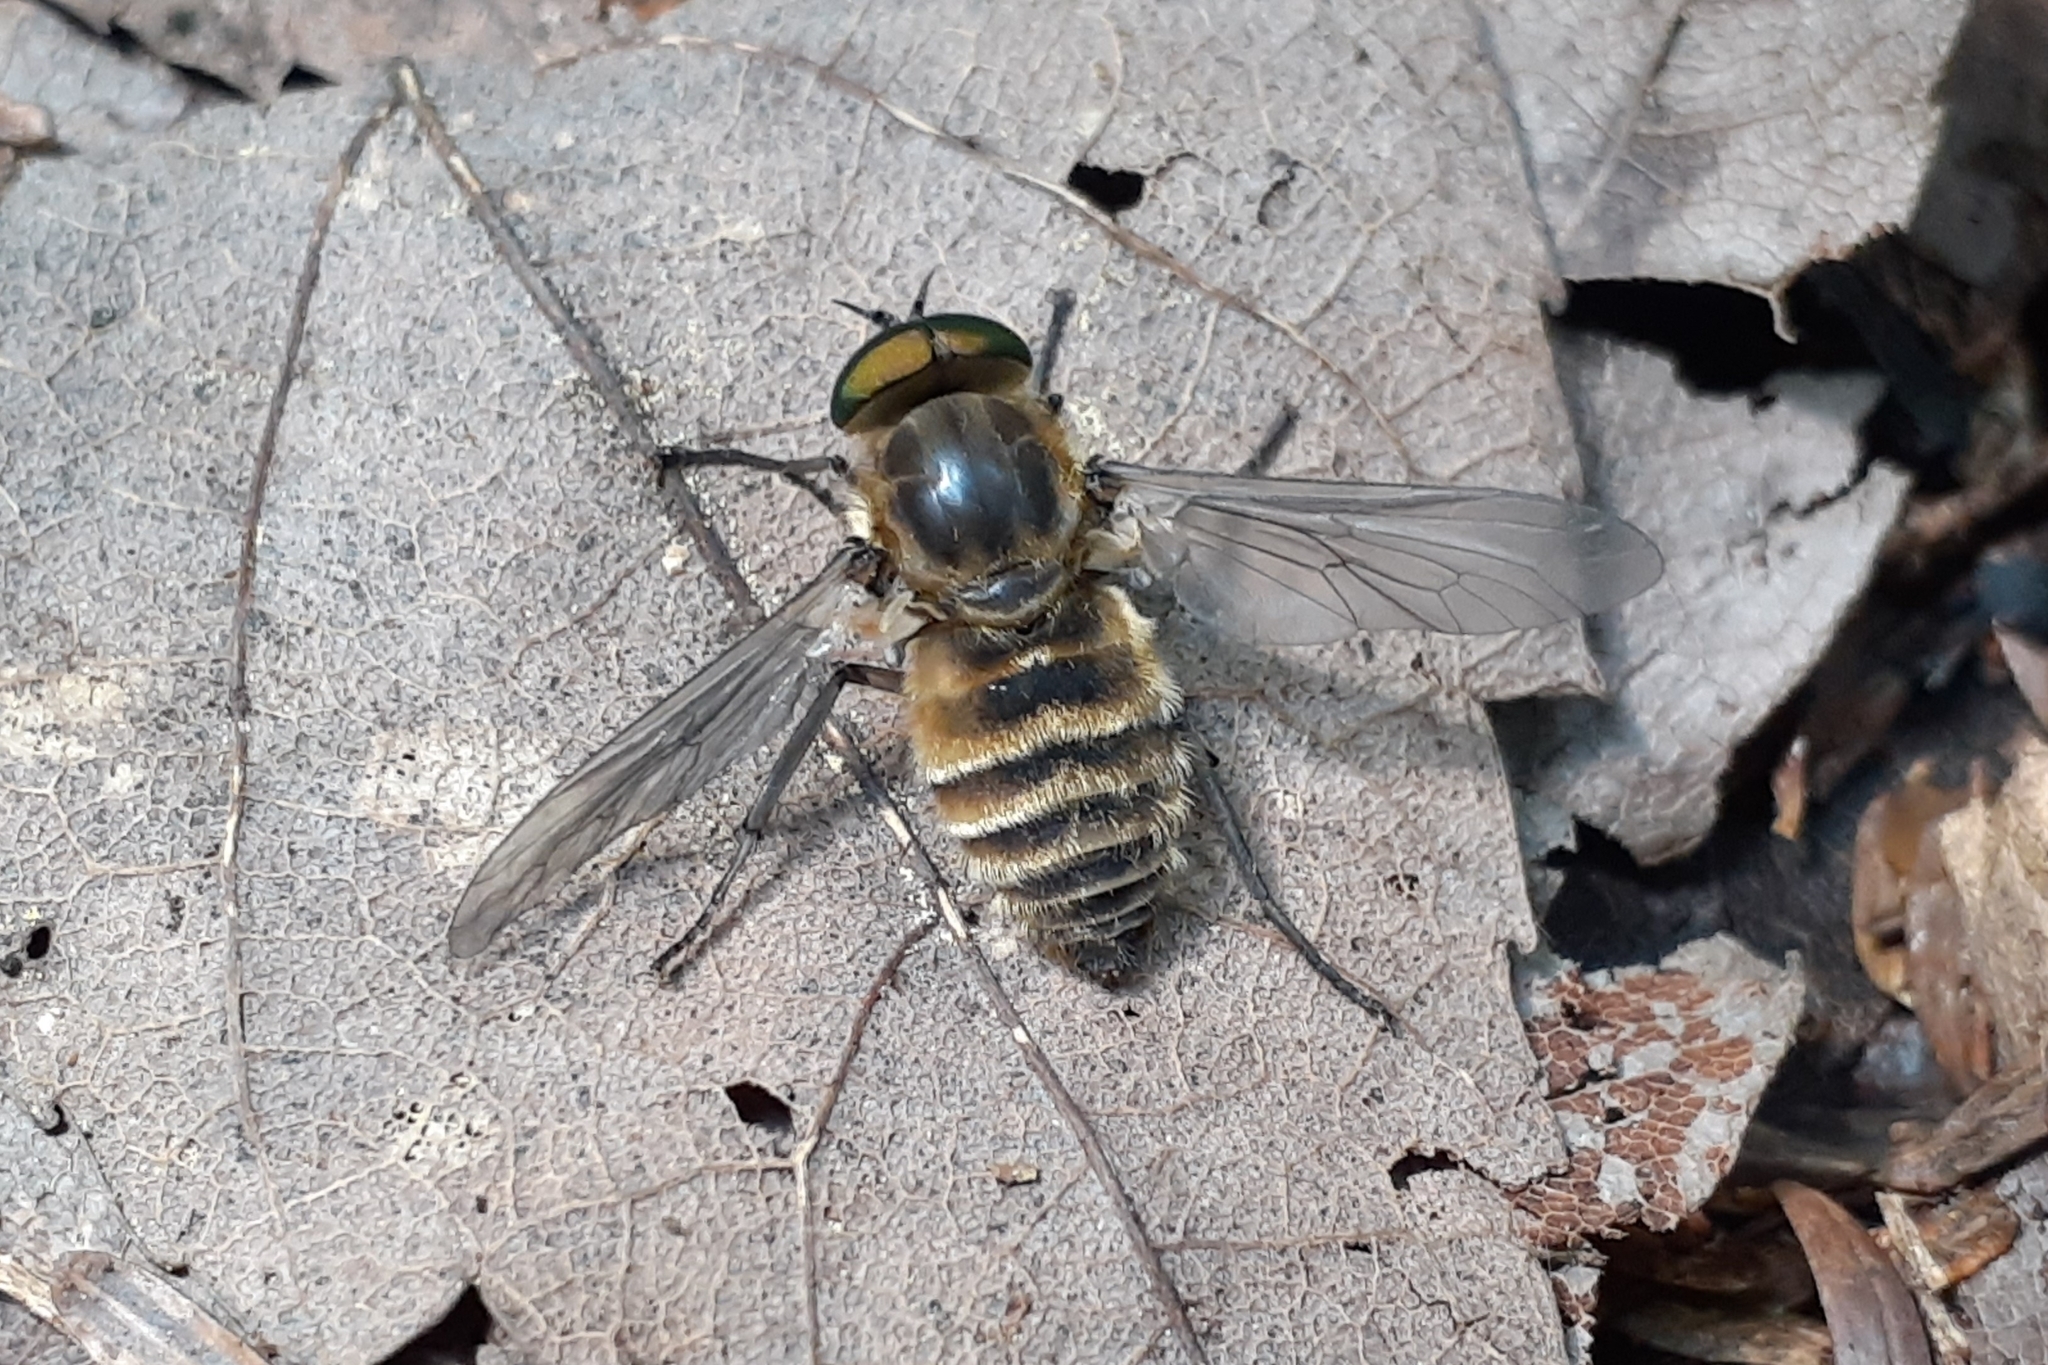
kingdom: Animalia
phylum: Arthropoda
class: Insecta
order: Diptera
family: Tabanidae
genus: Stonemyia
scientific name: Stonemyia tranquilla
